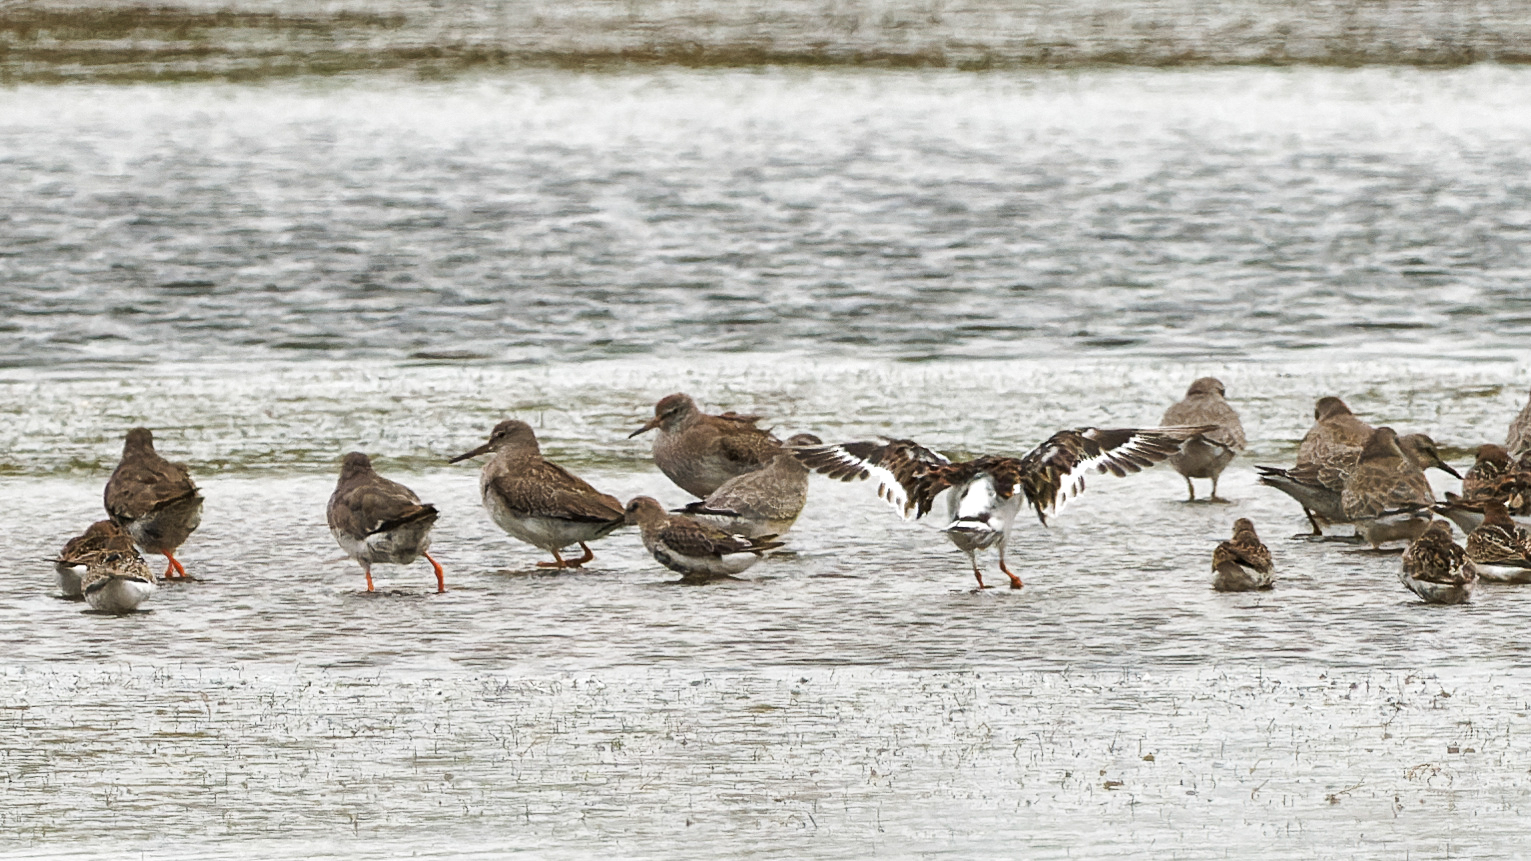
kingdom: Animalia
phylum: Chordata
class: Aves
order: Charadriiformes
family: Scolopacidae
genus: Tringa
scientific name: Tringa totanus
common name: Common redshank
